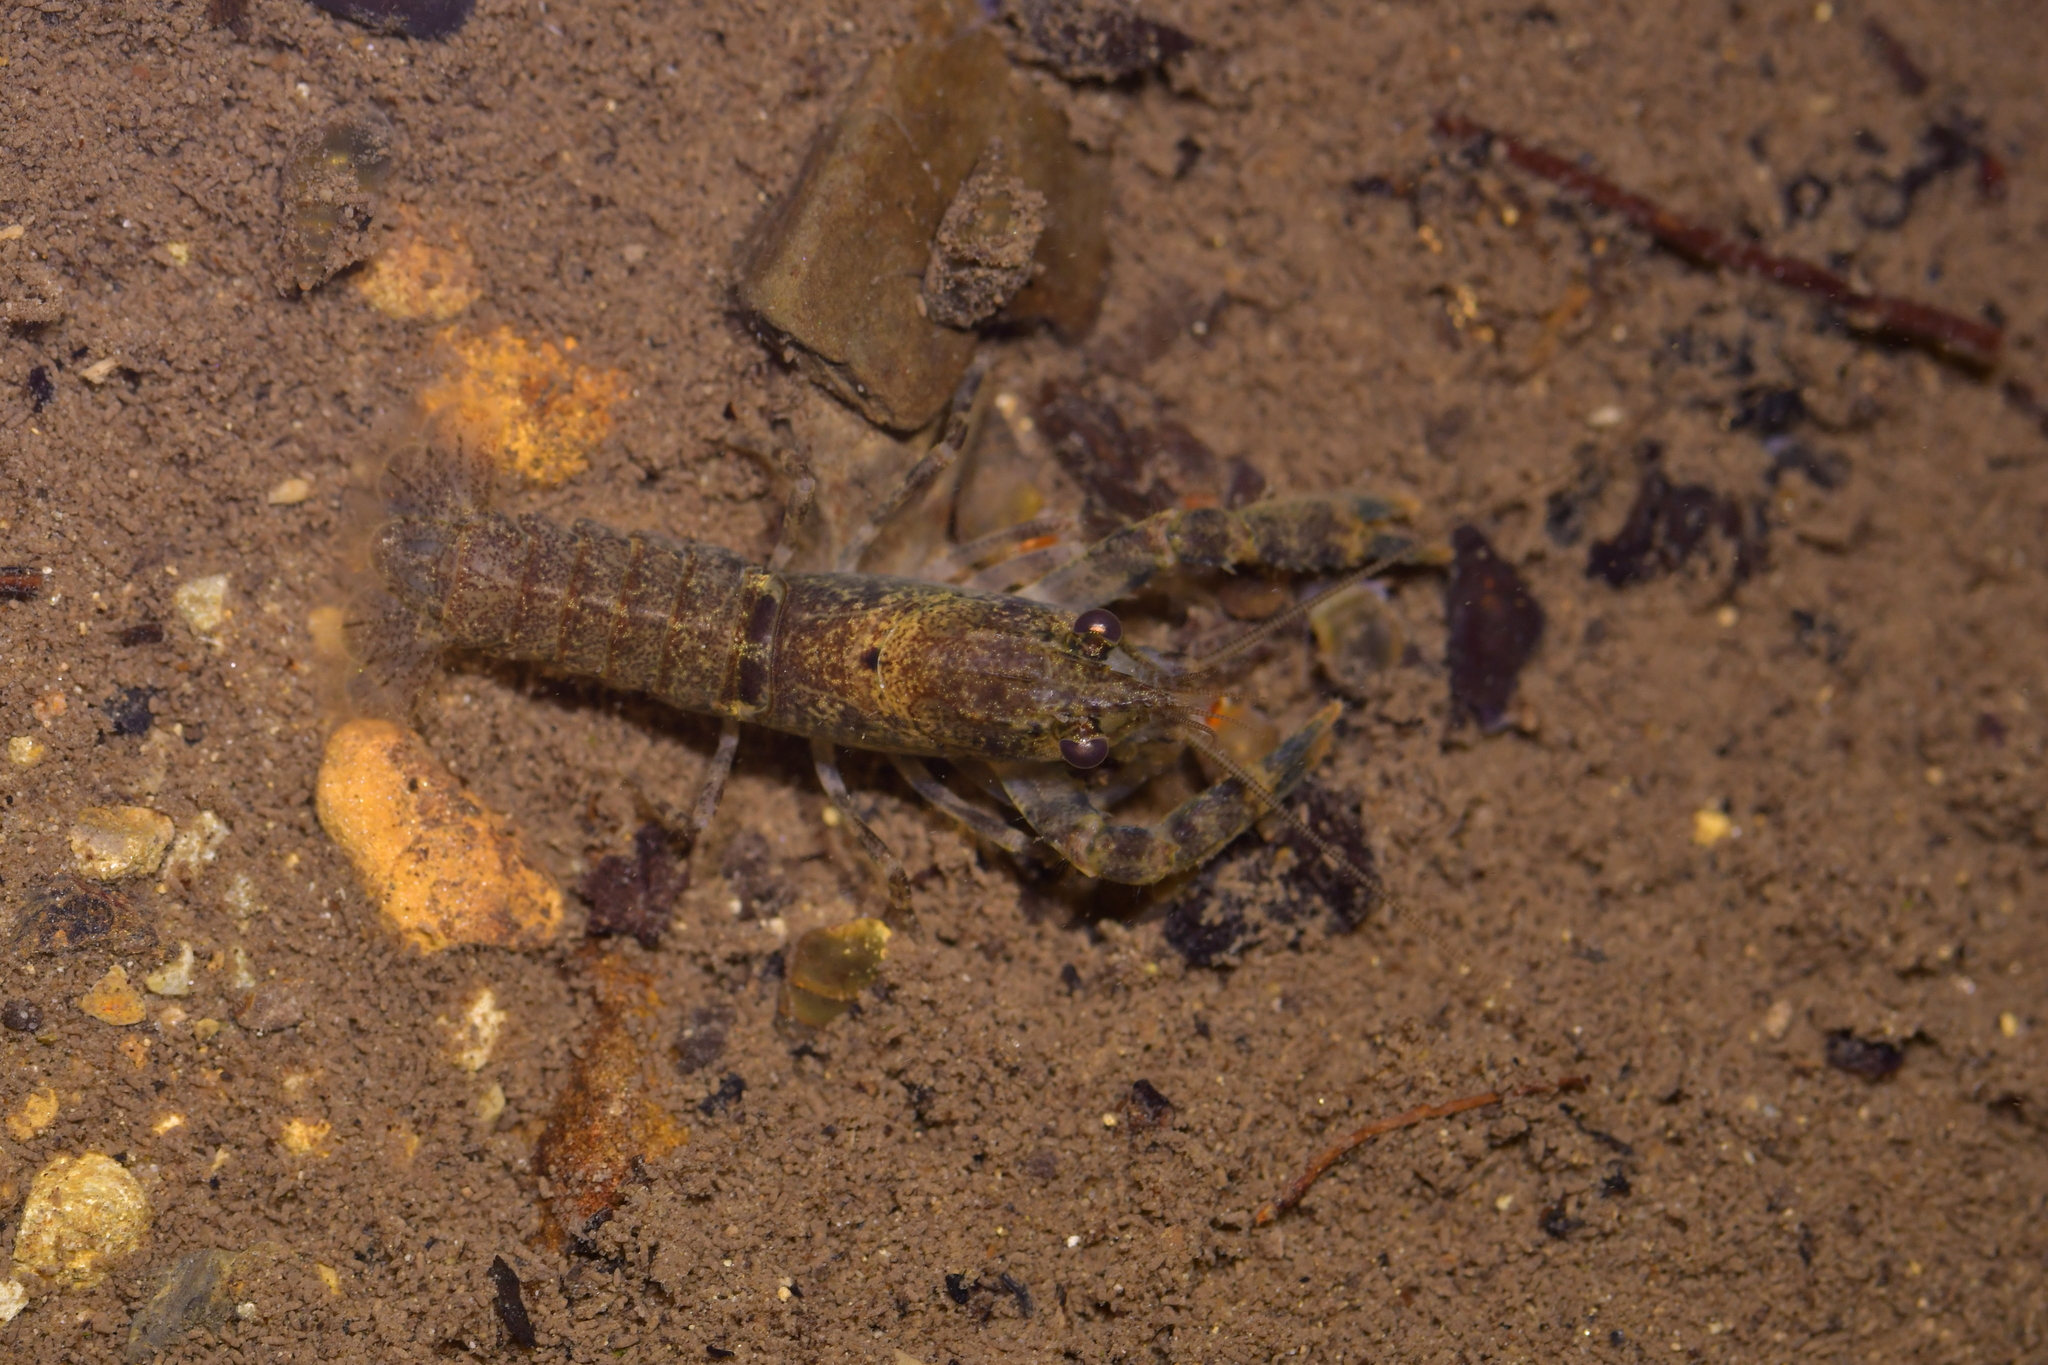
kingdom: Animalia
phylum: Arthropoda
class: Malacostraca
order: Decapoda
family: Parastacidae
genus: Paranephrops
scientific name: Paranephrops planifrons
